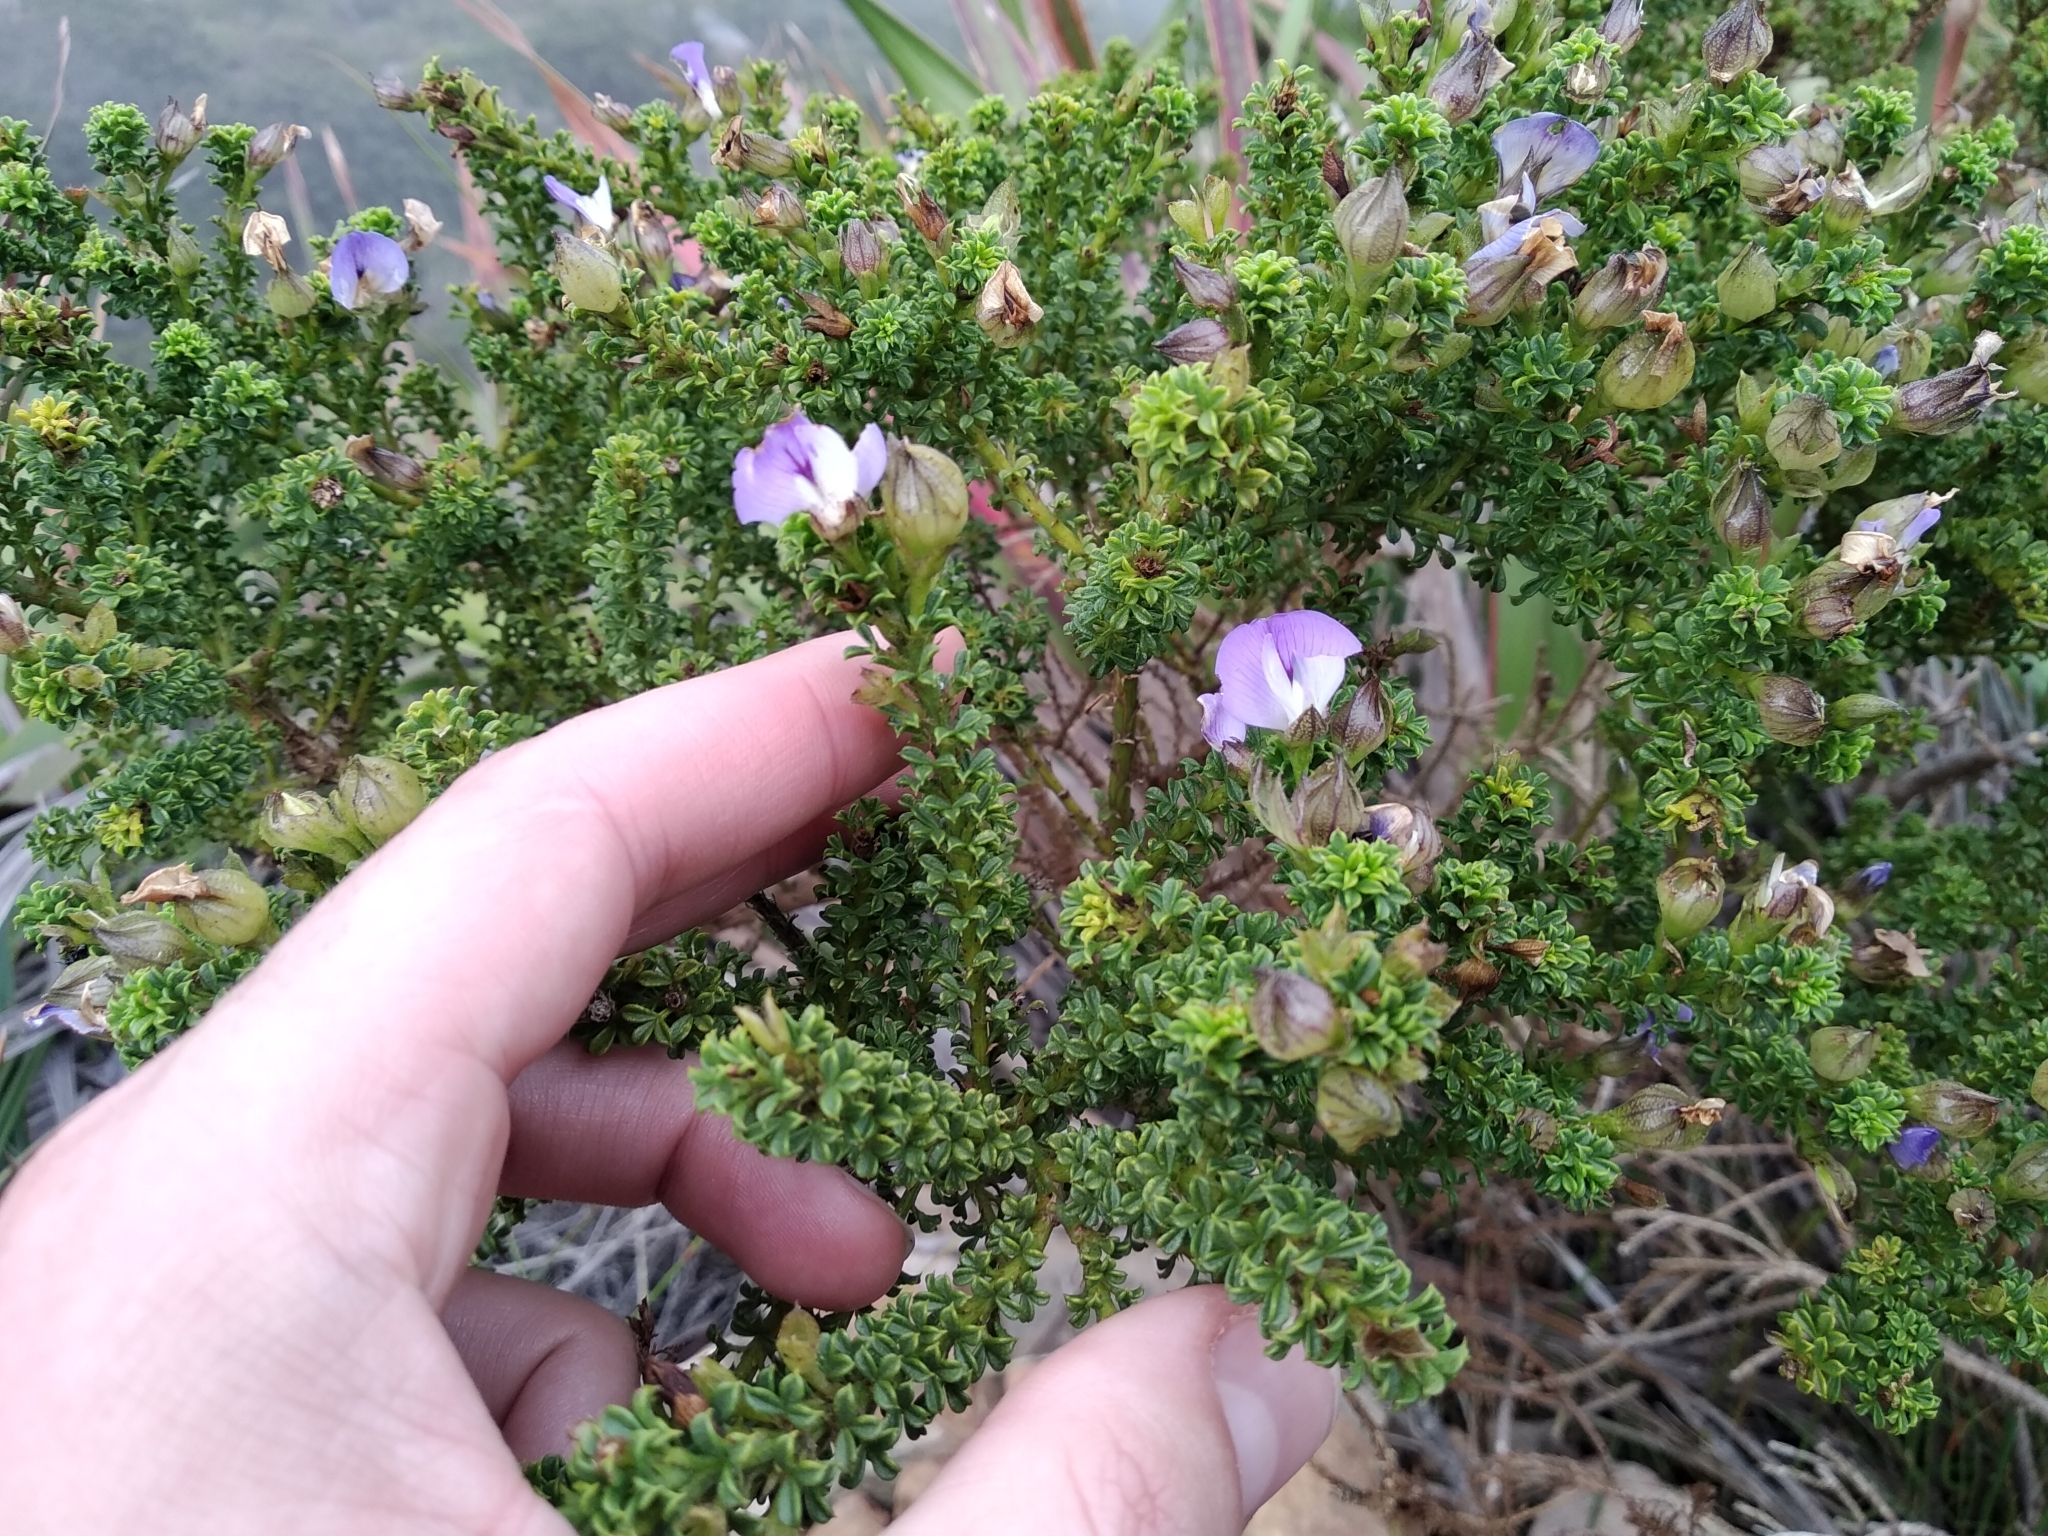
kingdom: Plantae
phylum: Tracheophyta
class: Magnoliopsida
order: Fabales
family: Fabaceae
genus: Psoralea
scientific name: Psoralea aculeata
